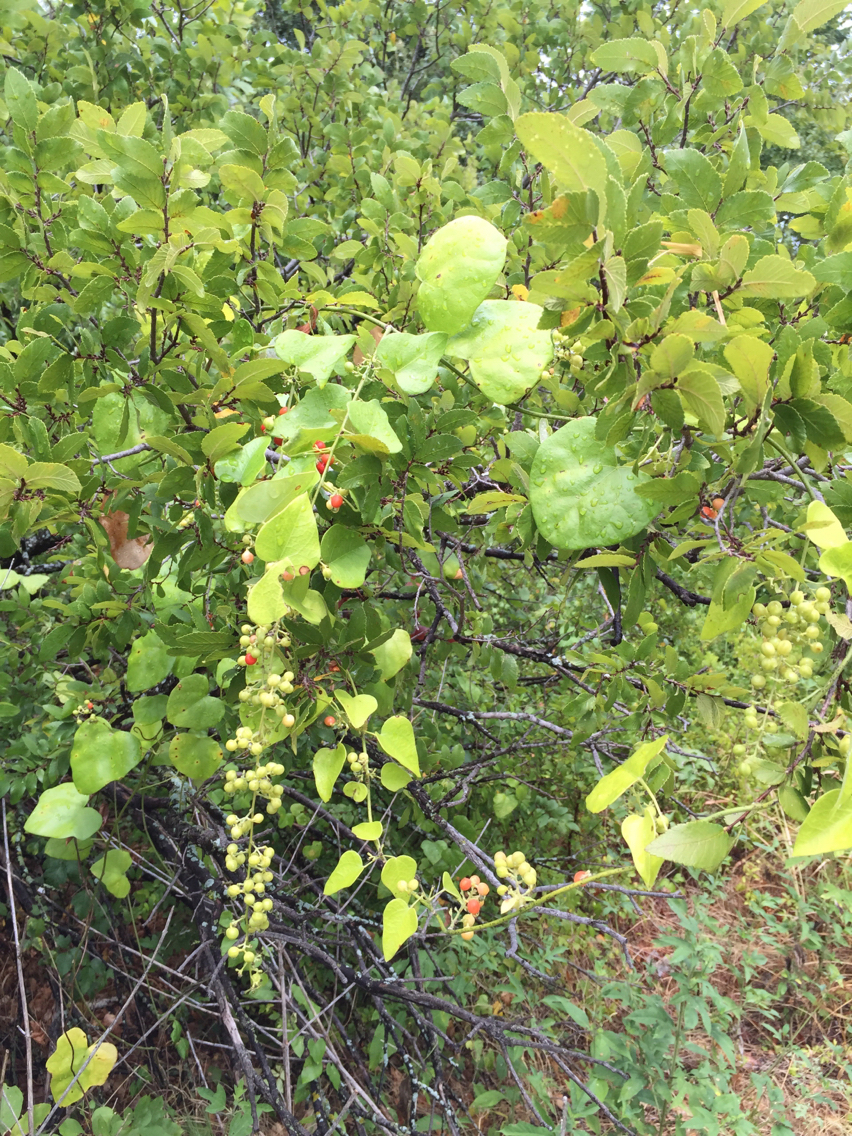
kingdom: Plantae
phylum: Tracheophyta
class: Magnoliopsida
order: Ranunculales
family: Menispermaceae
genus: Cocculus
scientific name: Cocculus carolinus
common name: Carolina moonseed
